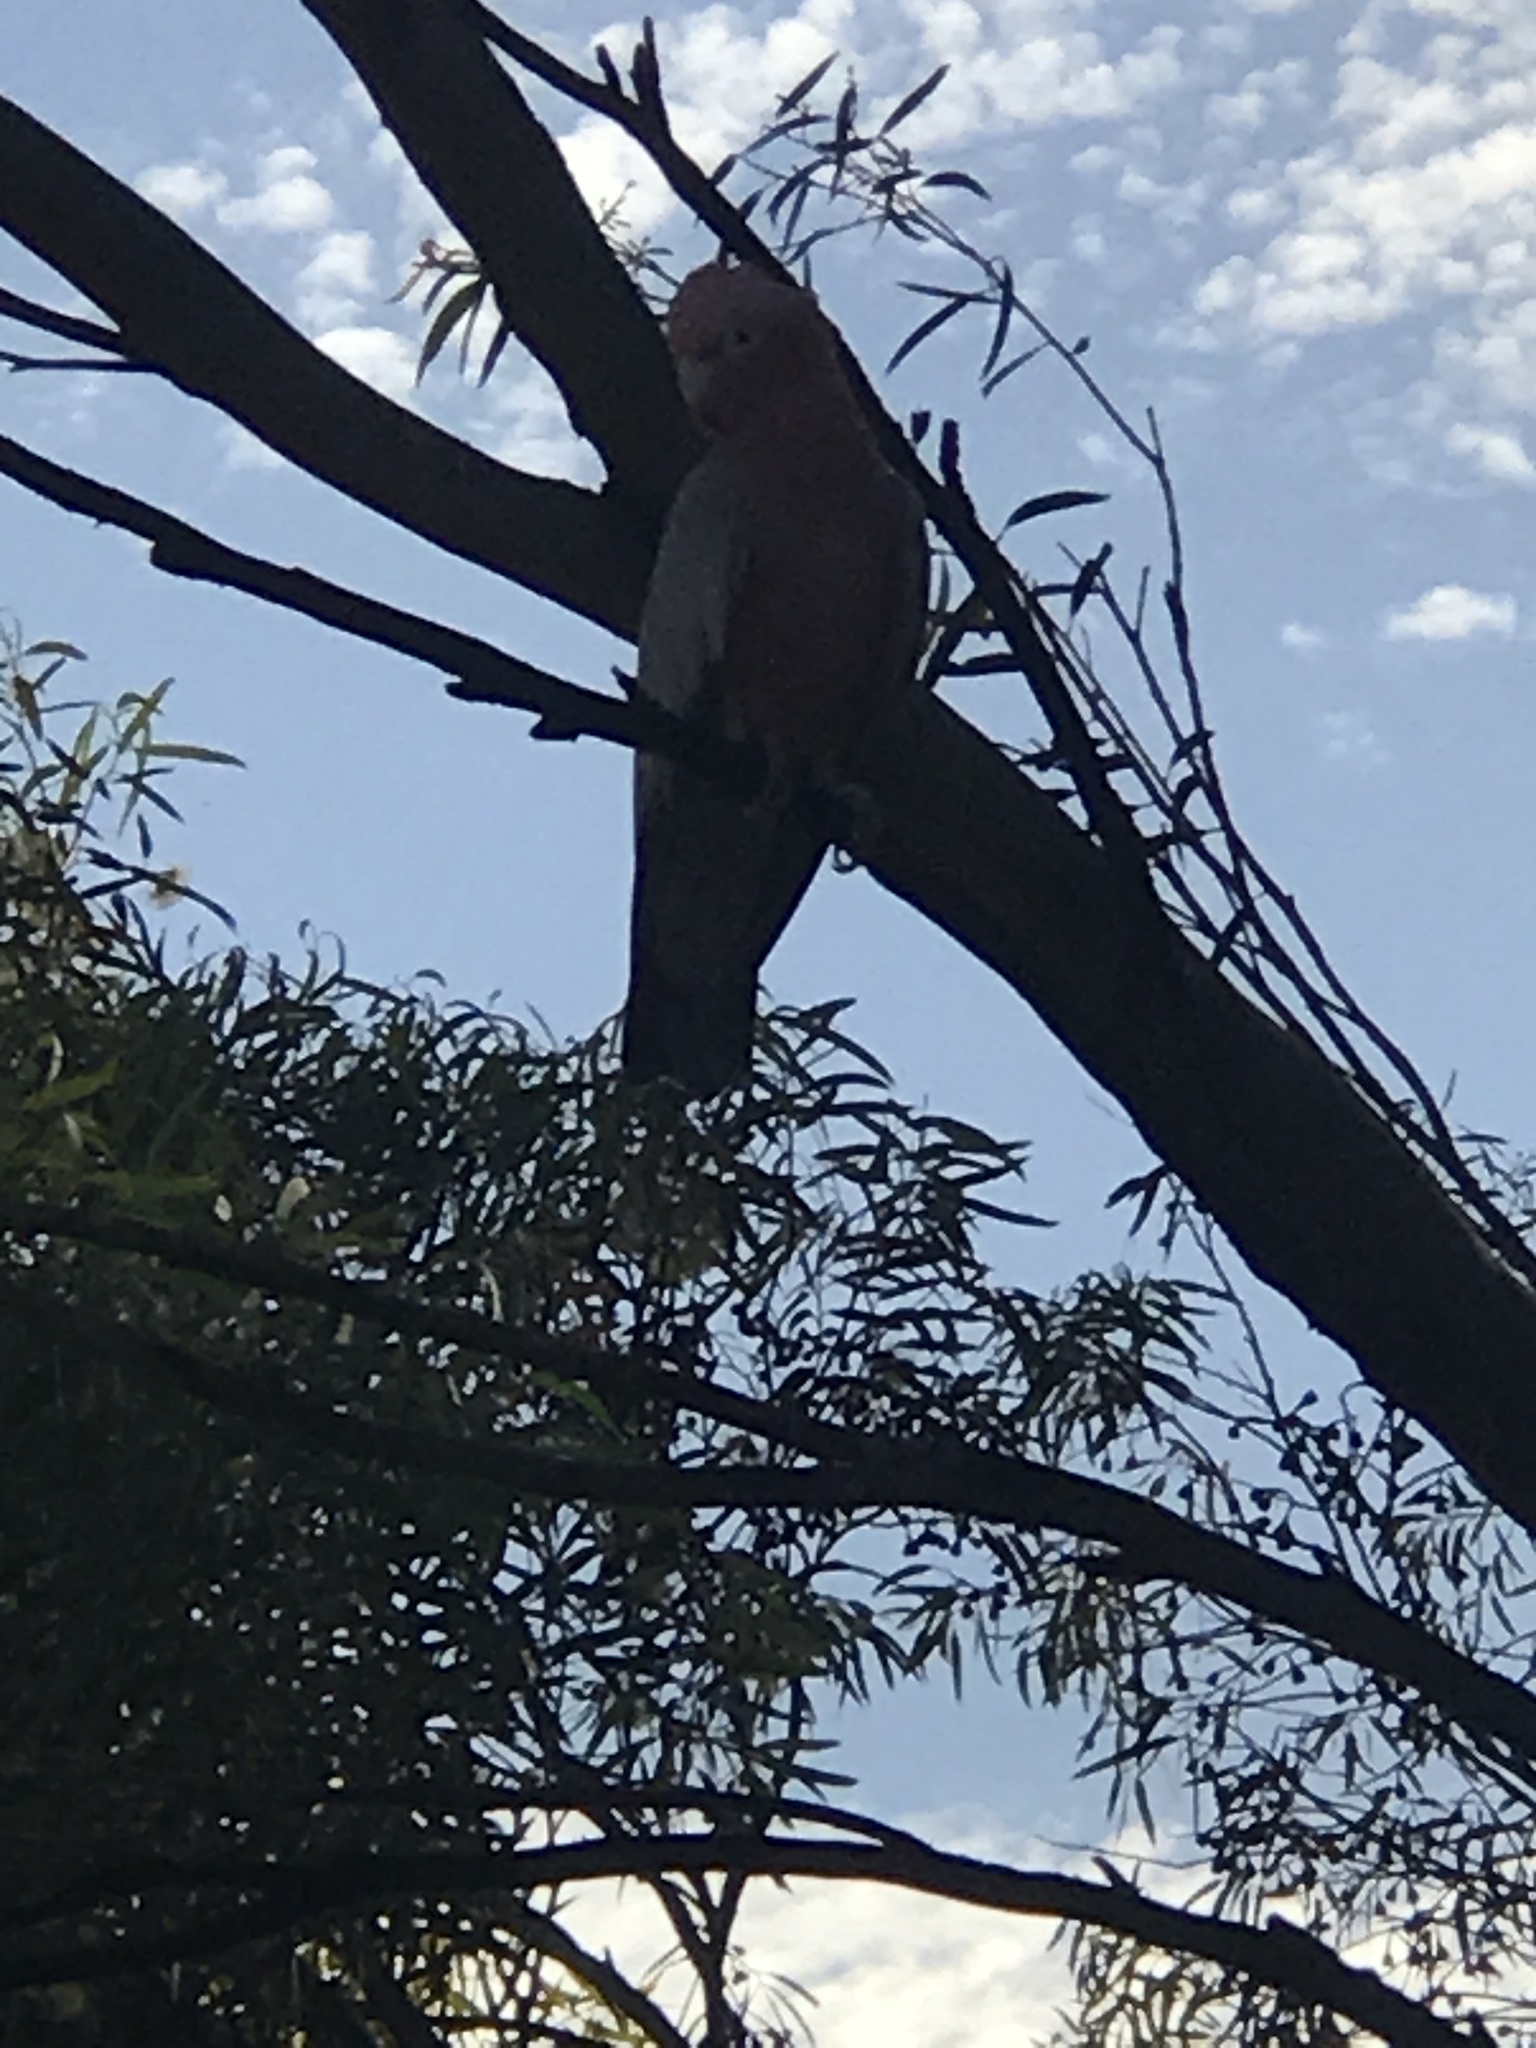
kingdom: Animalia
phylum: Chordata
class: Aves
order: Psittaciformes
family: Psittacidae
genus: Eolophus
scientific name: Eolophus roseicapilla
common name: Galah
